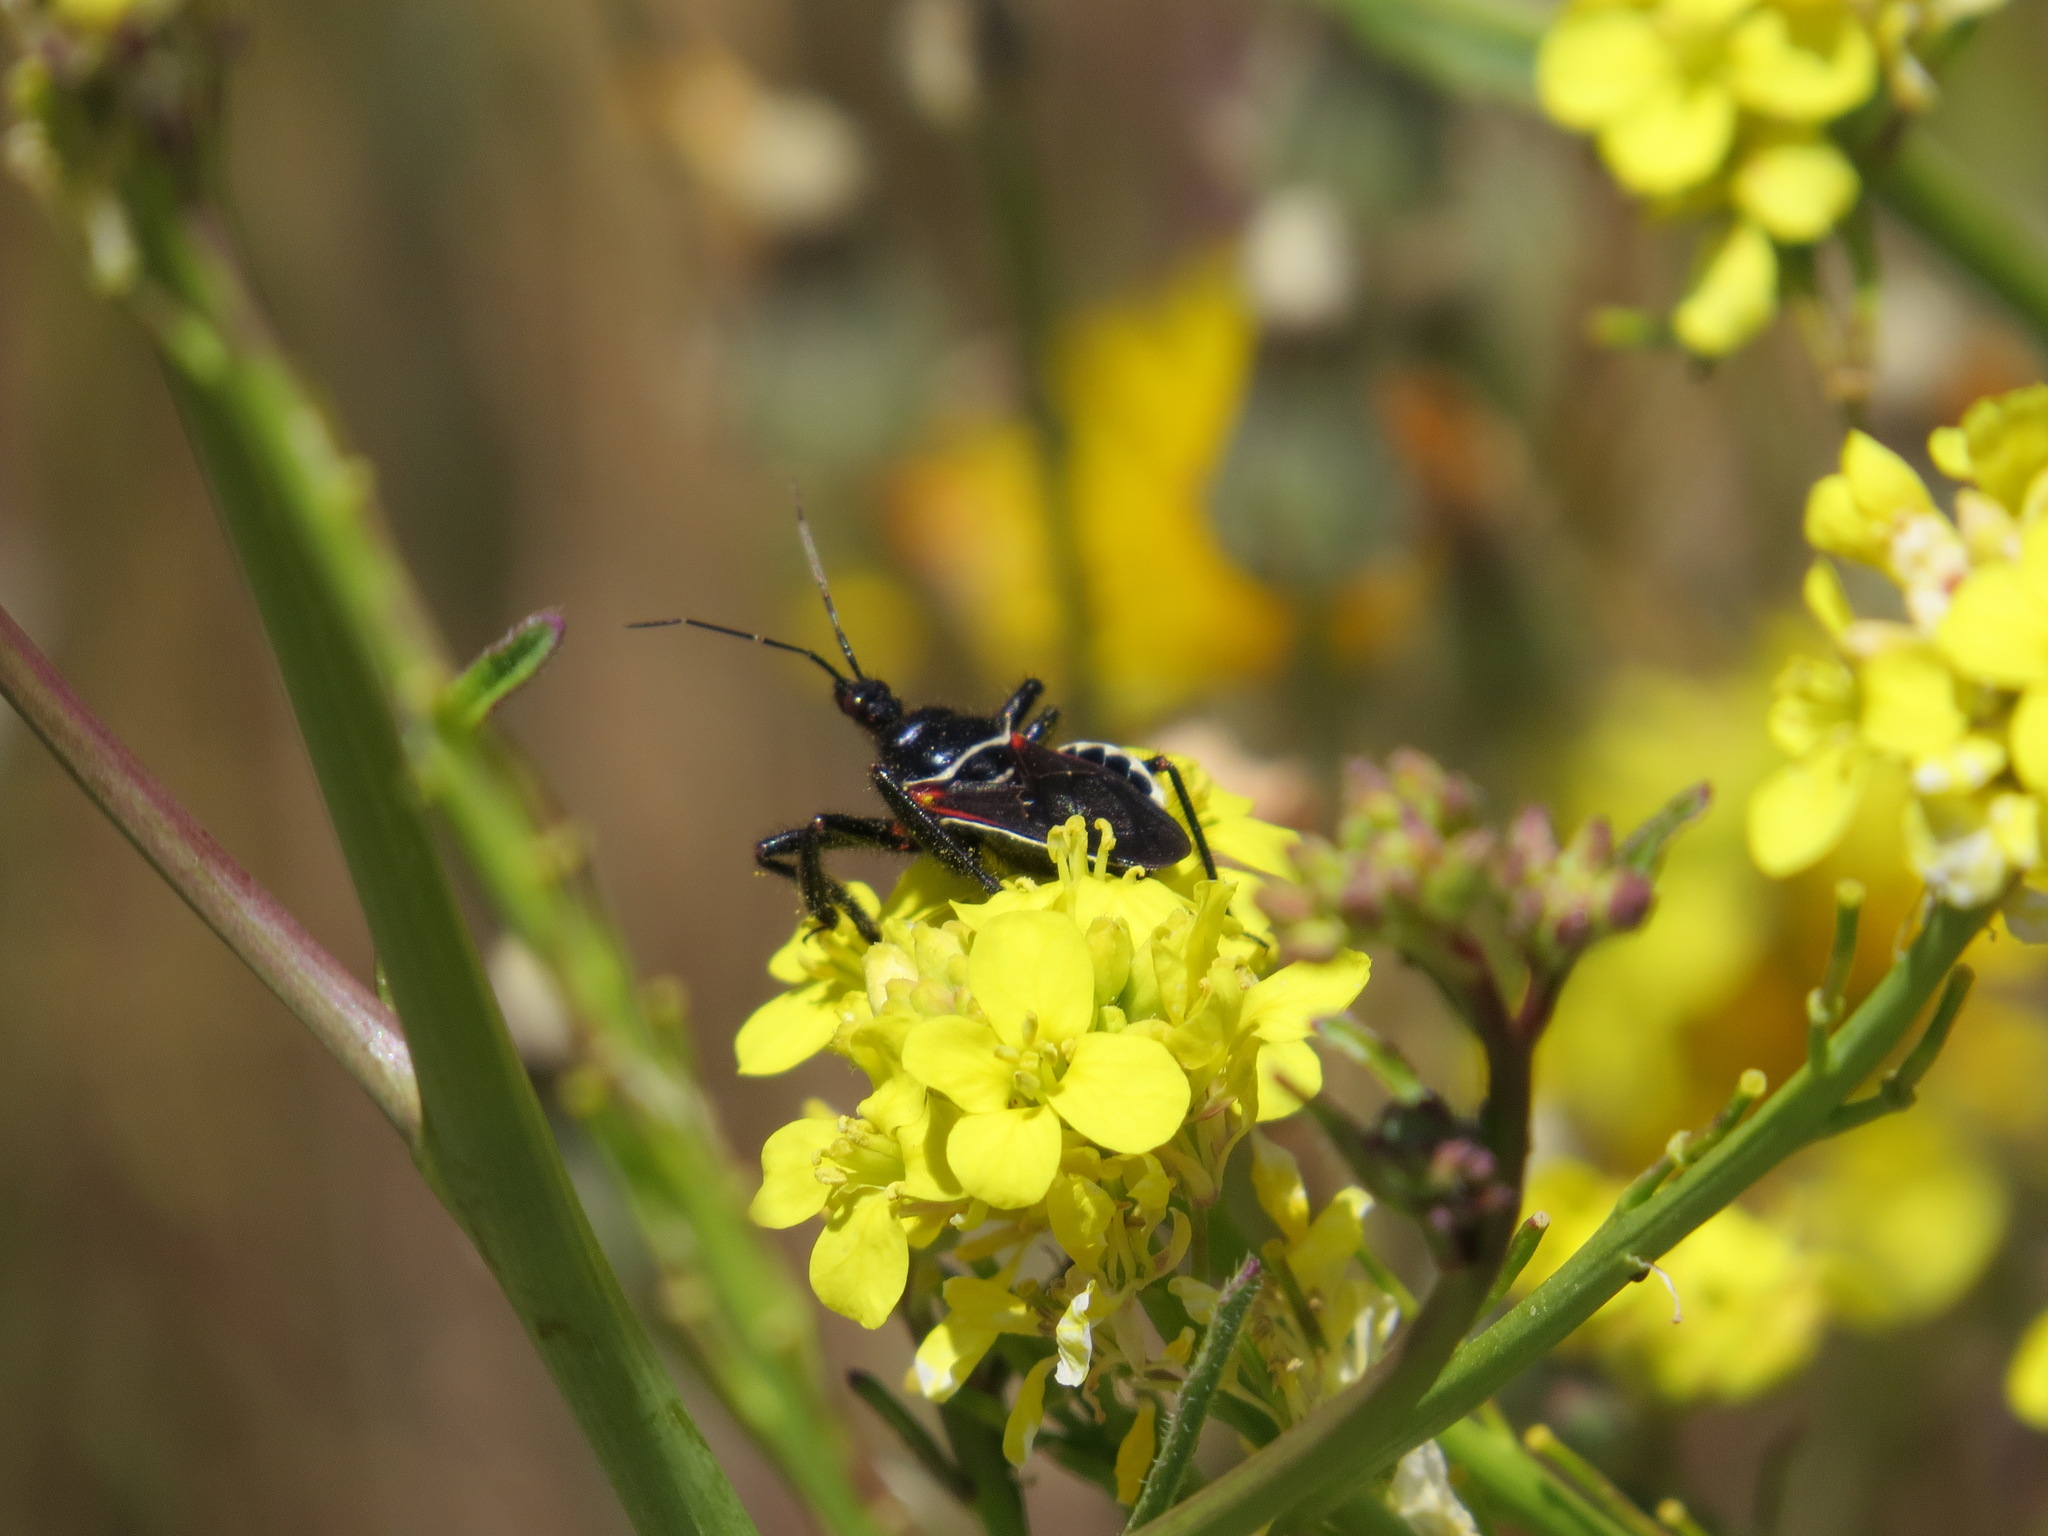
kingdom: Animalia
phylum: Arthropoda
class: Insecta
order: Hemiptera
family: Reduviidae
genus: Apiomerus
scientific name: Apiomerus californicus
